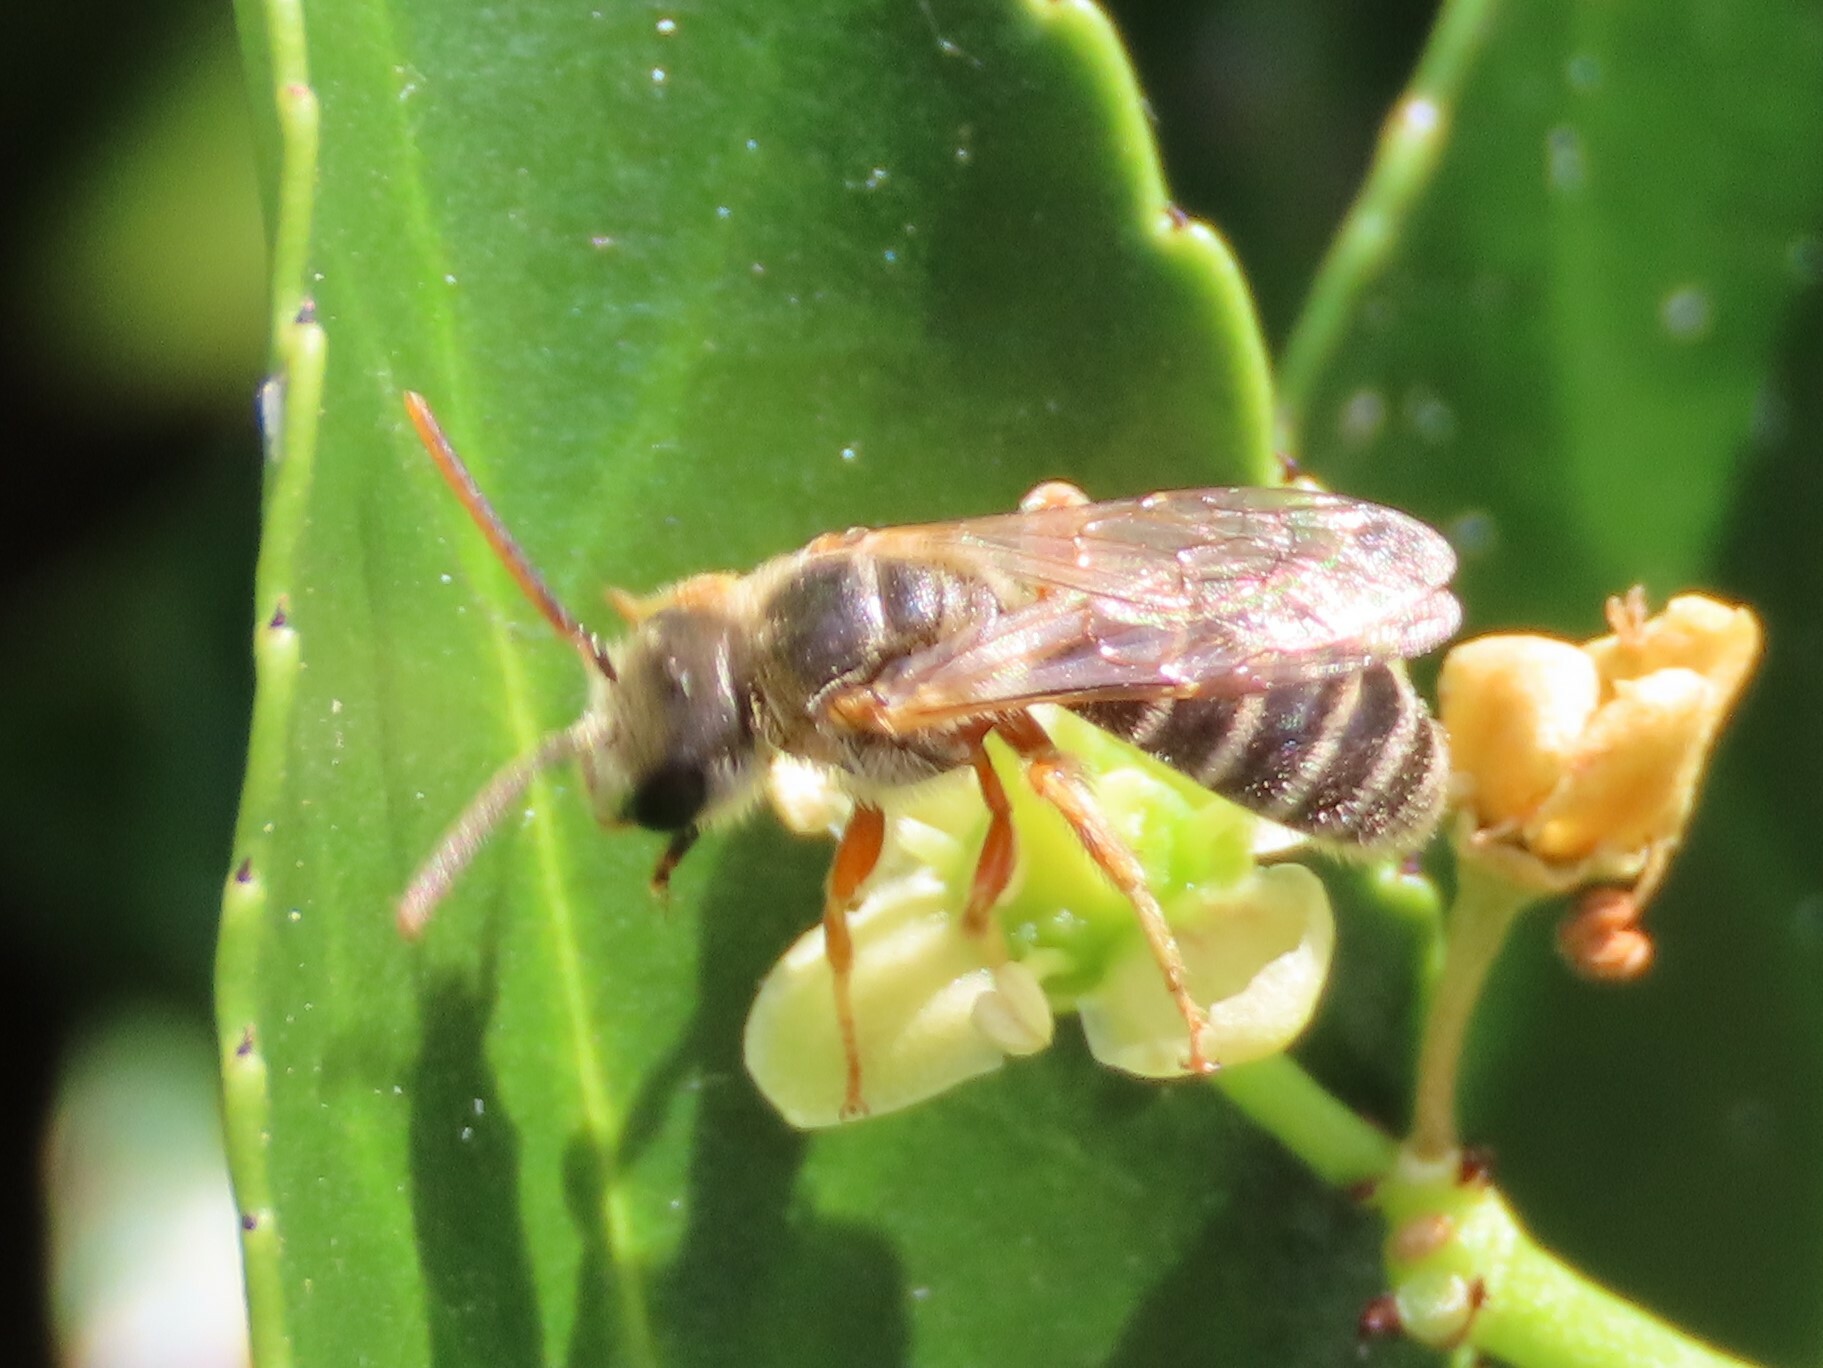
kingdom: Animalia
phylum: Arthropoda
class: Insecta
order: Hymenoptera
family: Halictidae
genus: Halictus
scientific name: Halictus confusus
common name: Southern bronze furrow bee
